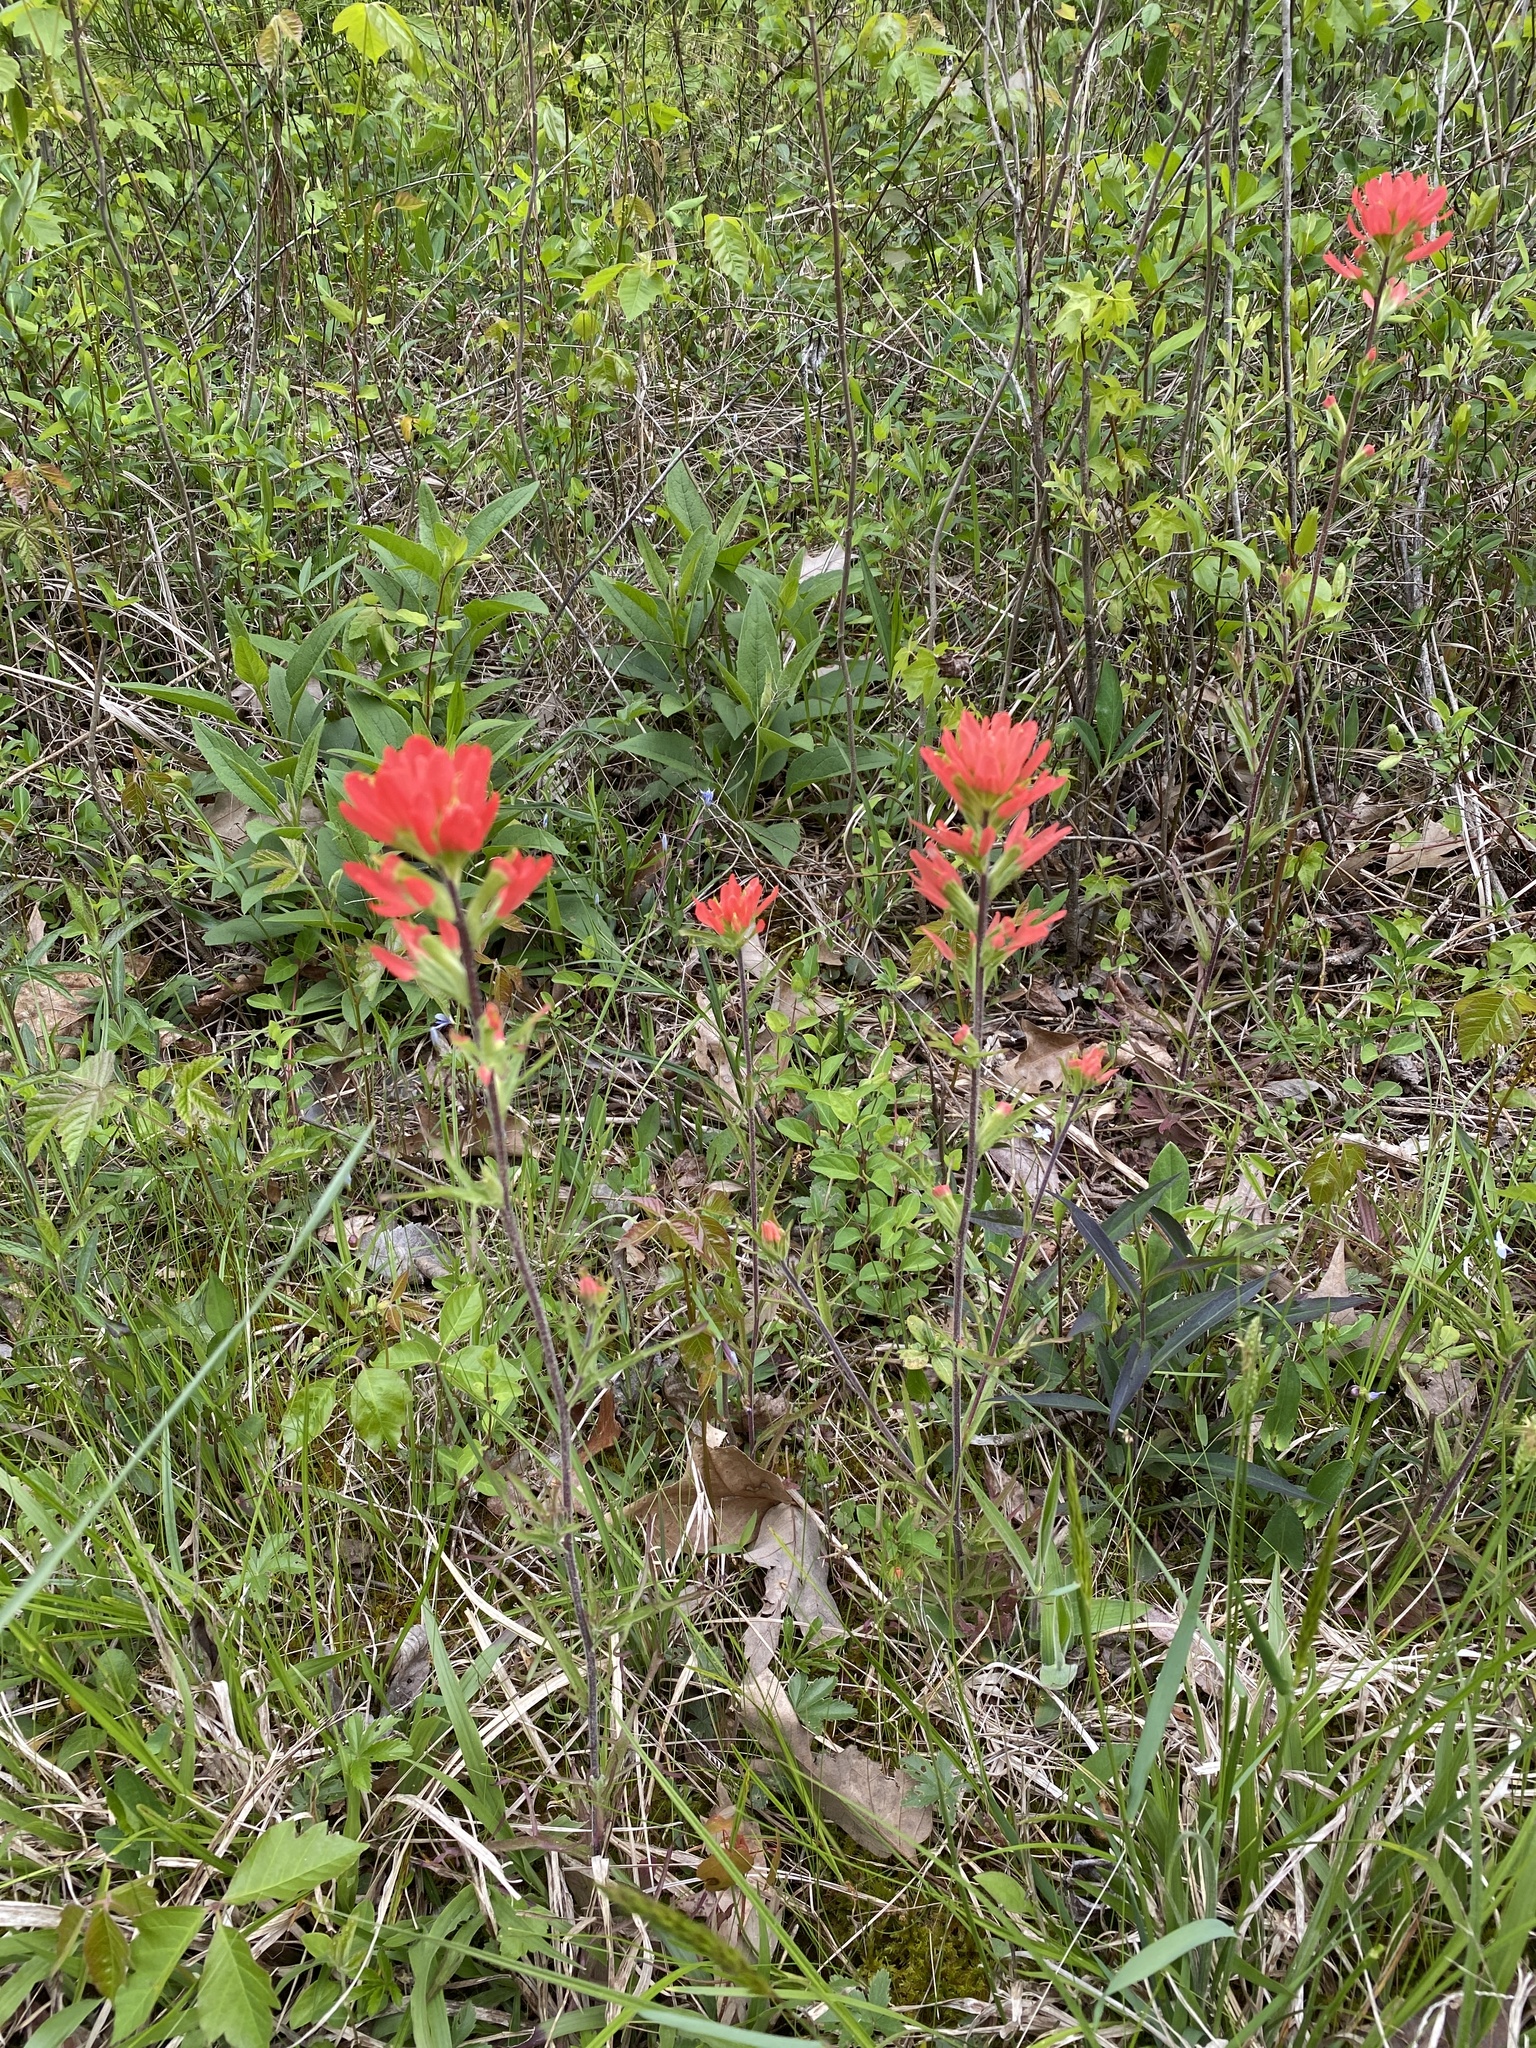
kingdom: Plantae
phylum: Tracheophyta
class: Magnoliopsida
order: Lamiales
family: Orobanchaceae
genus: Castilleja
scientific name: Castilleja coccinea
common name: Scarlet paintbrush
